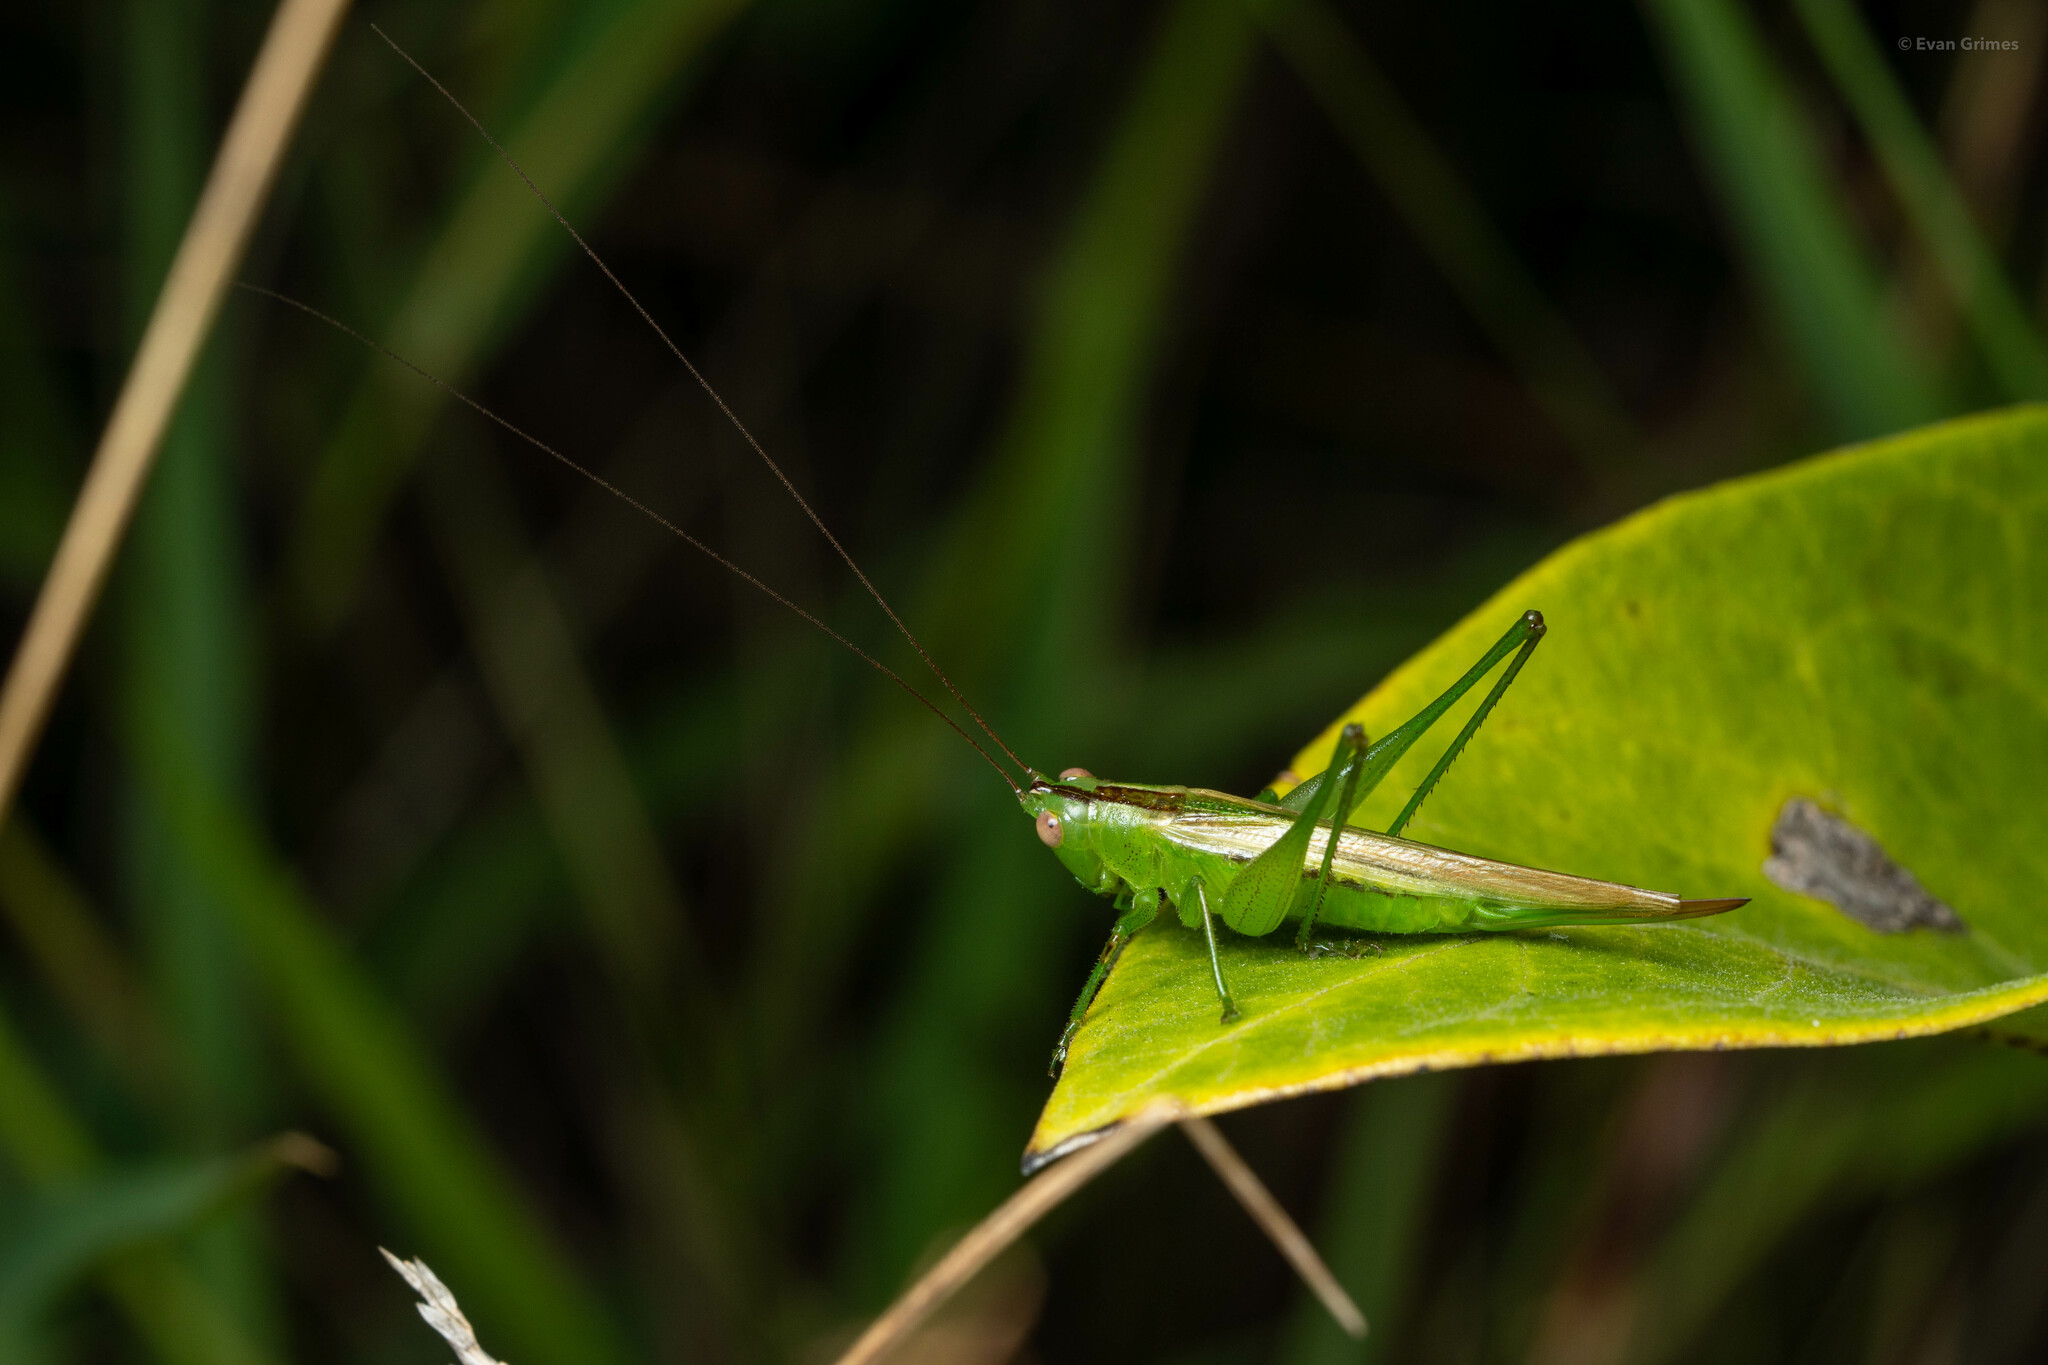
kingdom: Animalia
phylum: Arthropoda
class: Insecta
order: Orthoptera
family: Tettigoniidae
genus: Conocephalus
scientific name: Conocephalus fasciatus
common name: Slender meadow katydid
